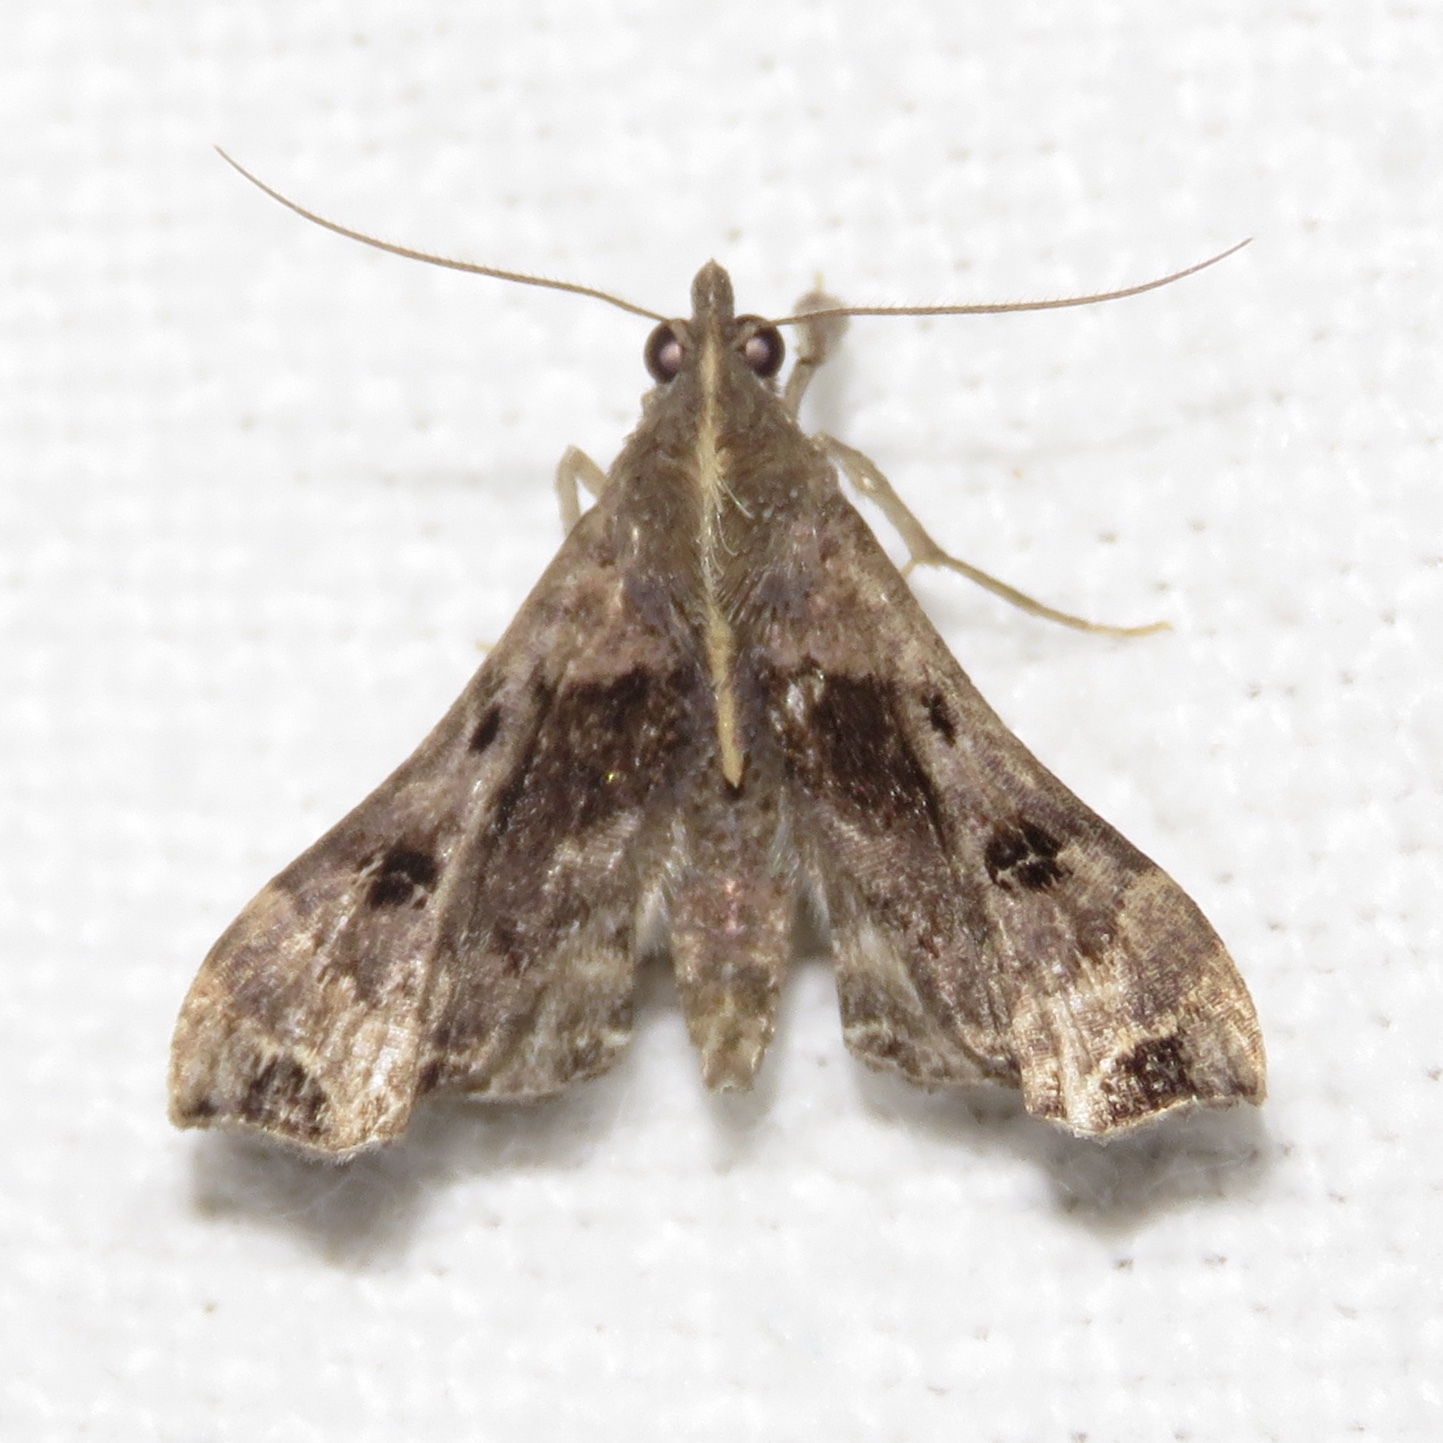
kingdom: Animalia
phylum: Arthropoda
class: Insecta
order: Lepidoptera
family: Erebidae
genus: Palthis
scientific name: Palthis asopialis
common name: Faint-spotted palthis moth
